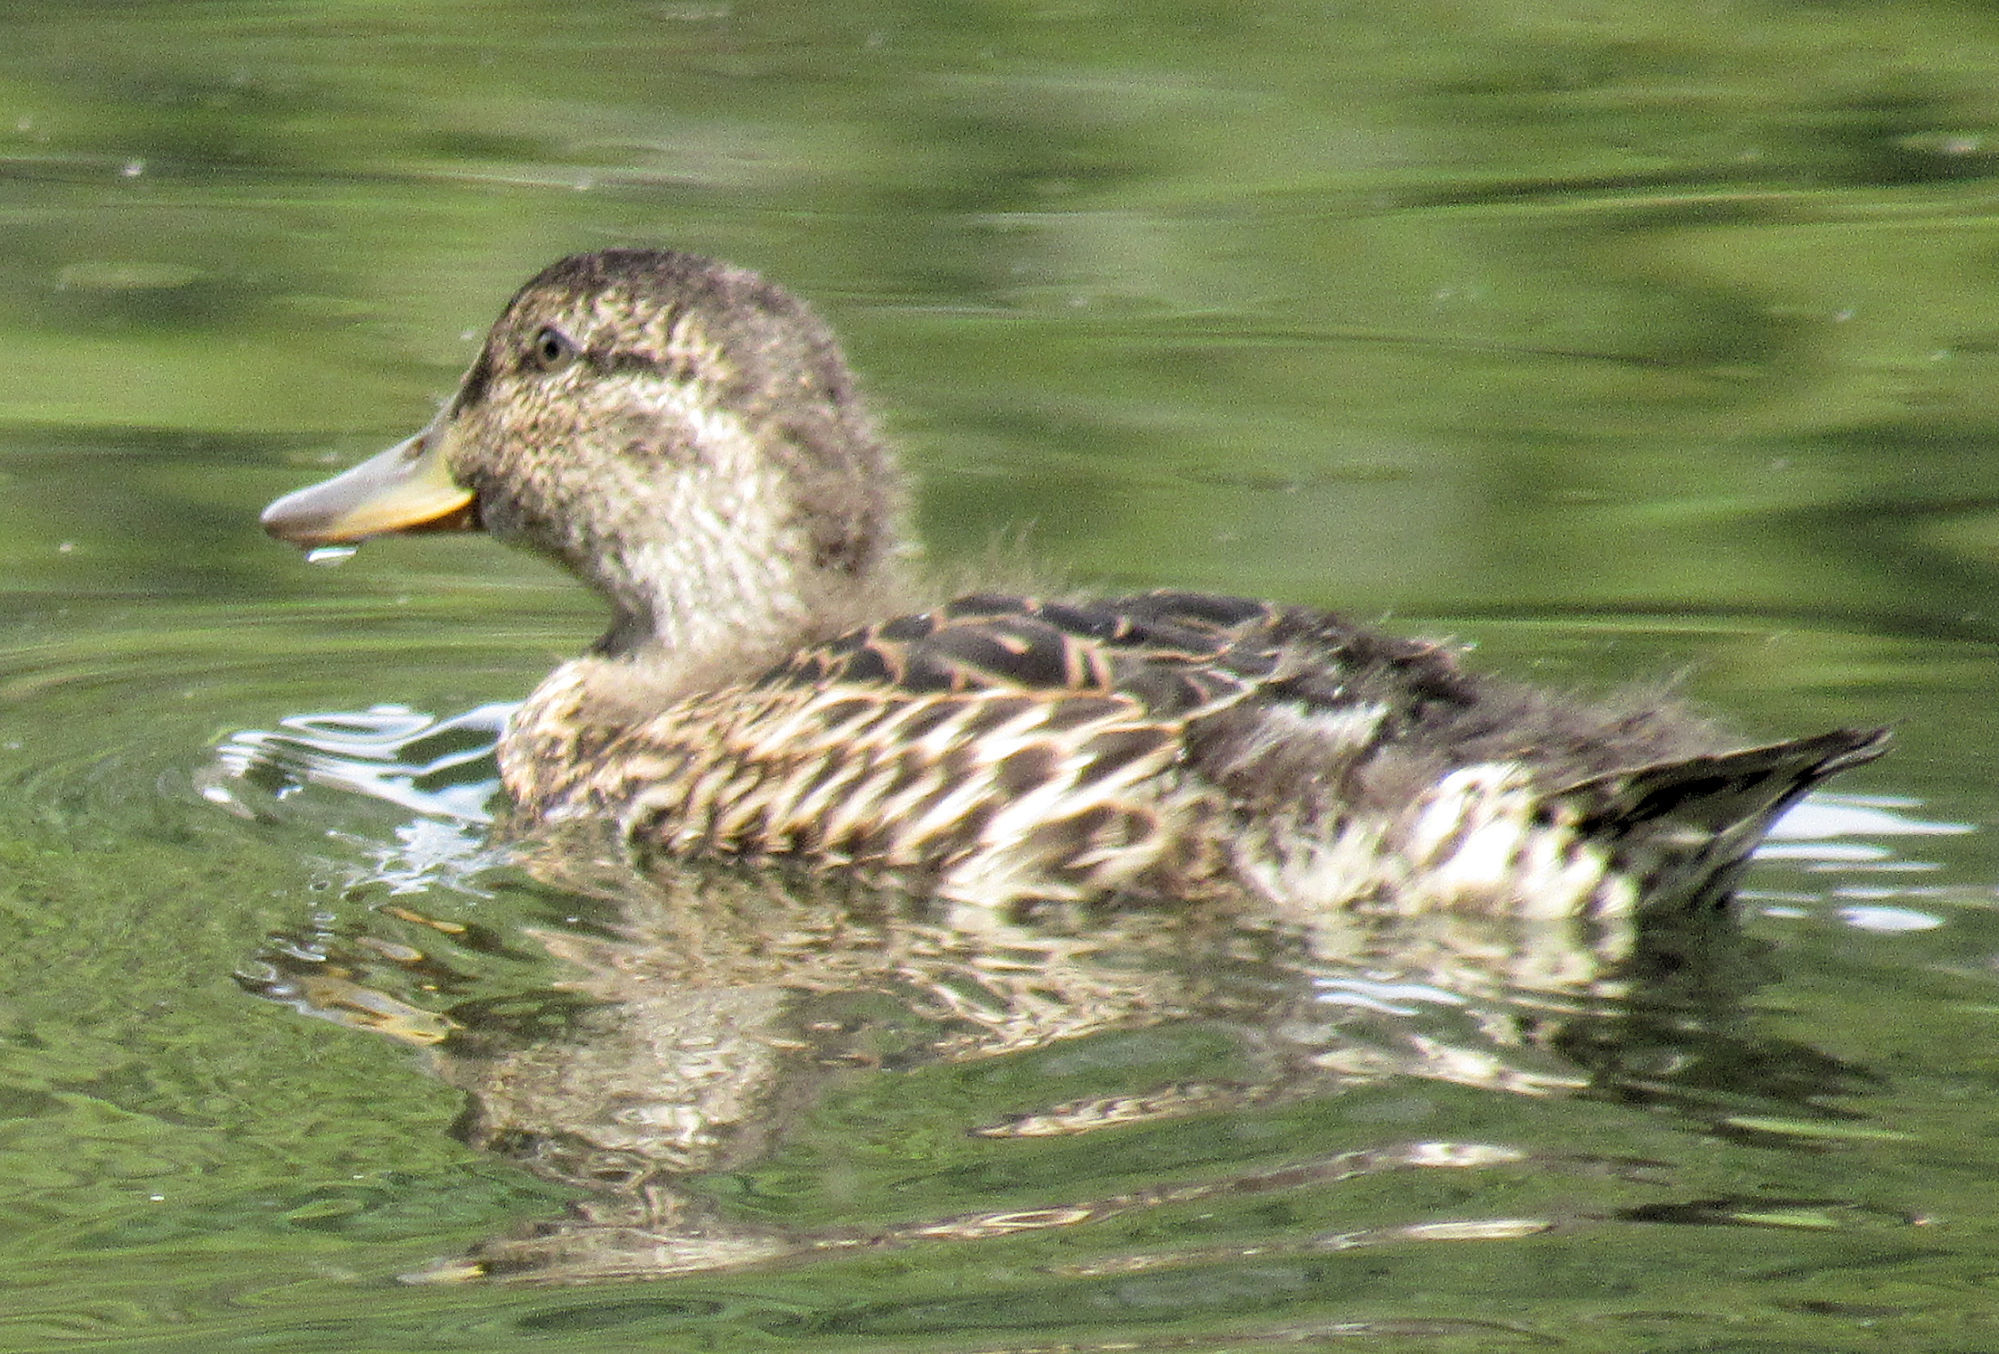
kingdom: Animalia
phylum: Chordata
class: Aves
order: Anseriformes
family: Anatidae
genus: Anas
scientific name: Anas crecca
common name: Eurasian teal
